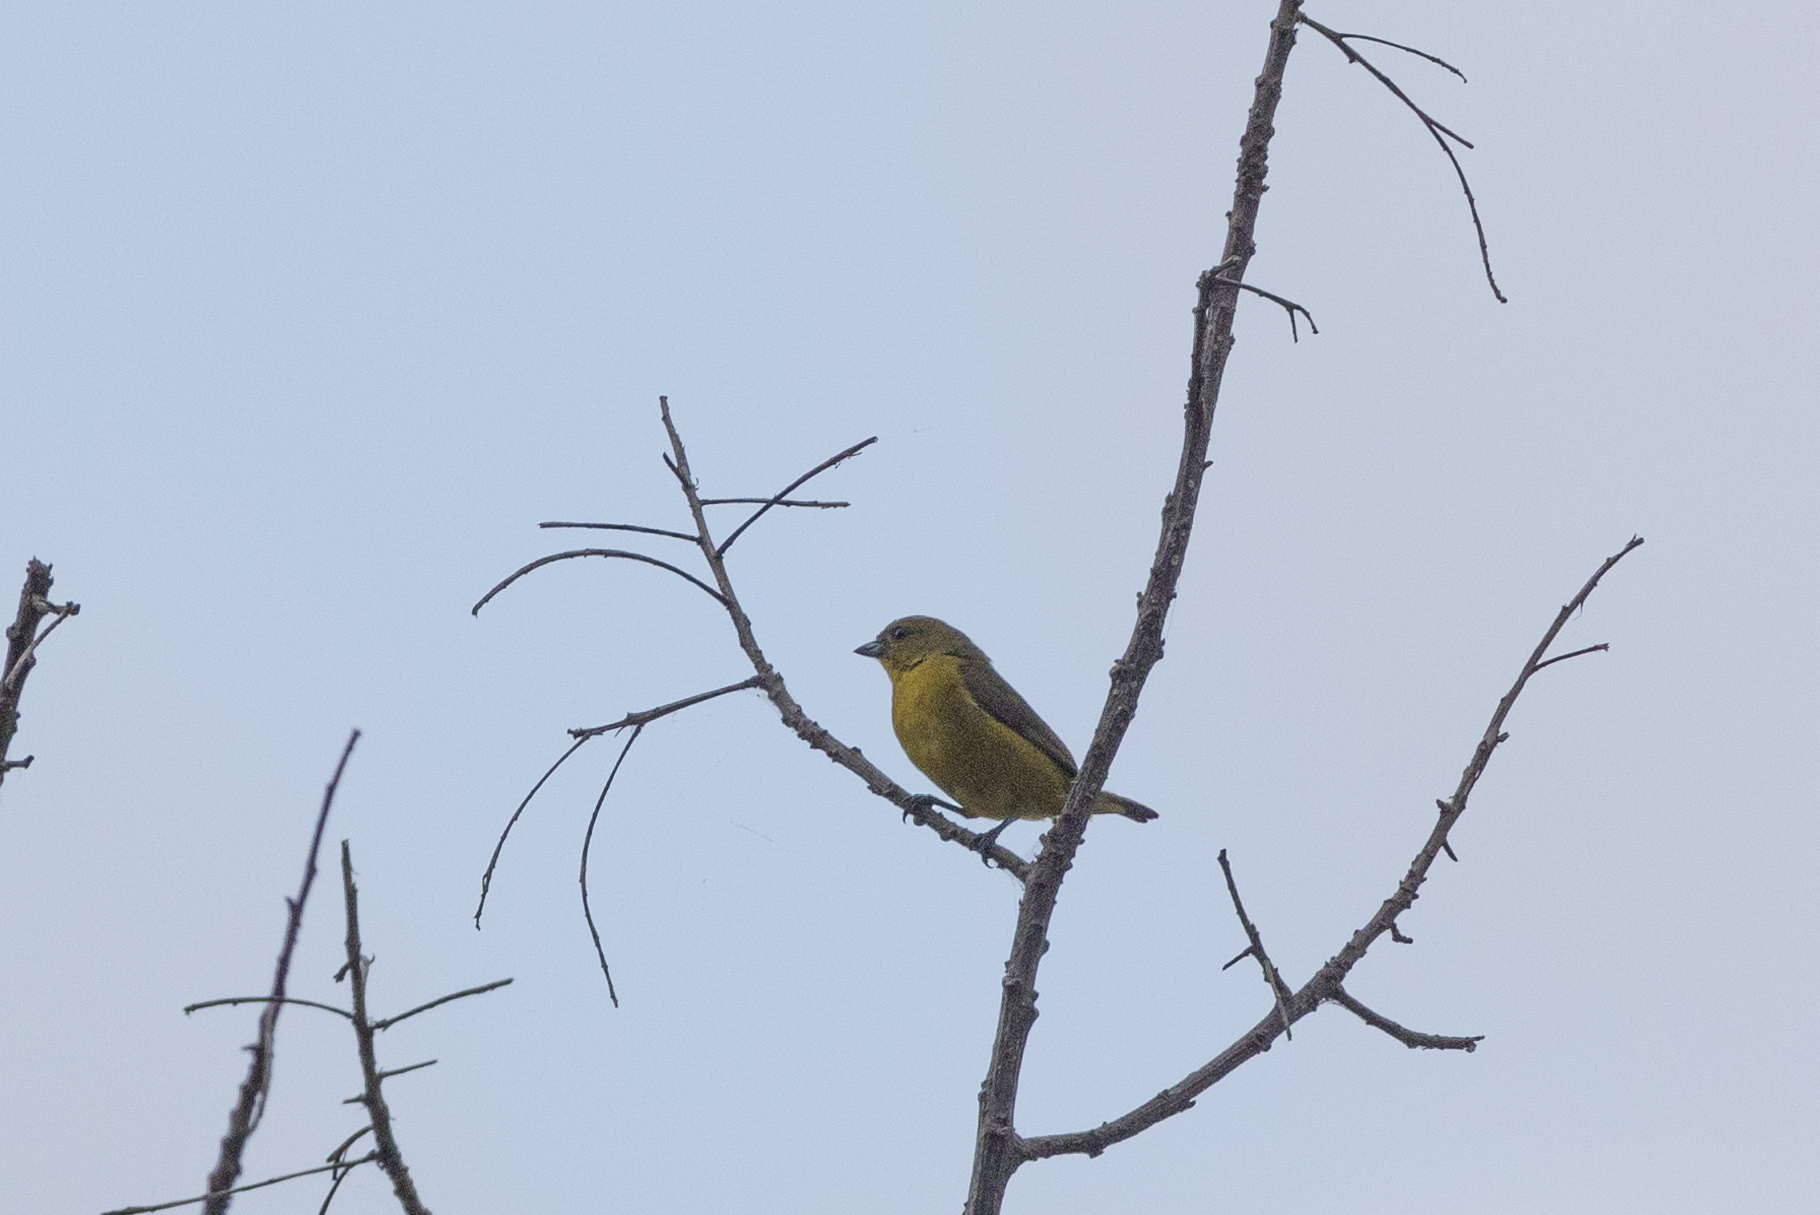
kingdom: Animalia
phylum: Chordata
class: Aves
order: Passeriformes
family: Fringillidae
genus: Euphonia
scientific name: Euphonia luteicapilla
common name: Yellow-crowned euphonia
